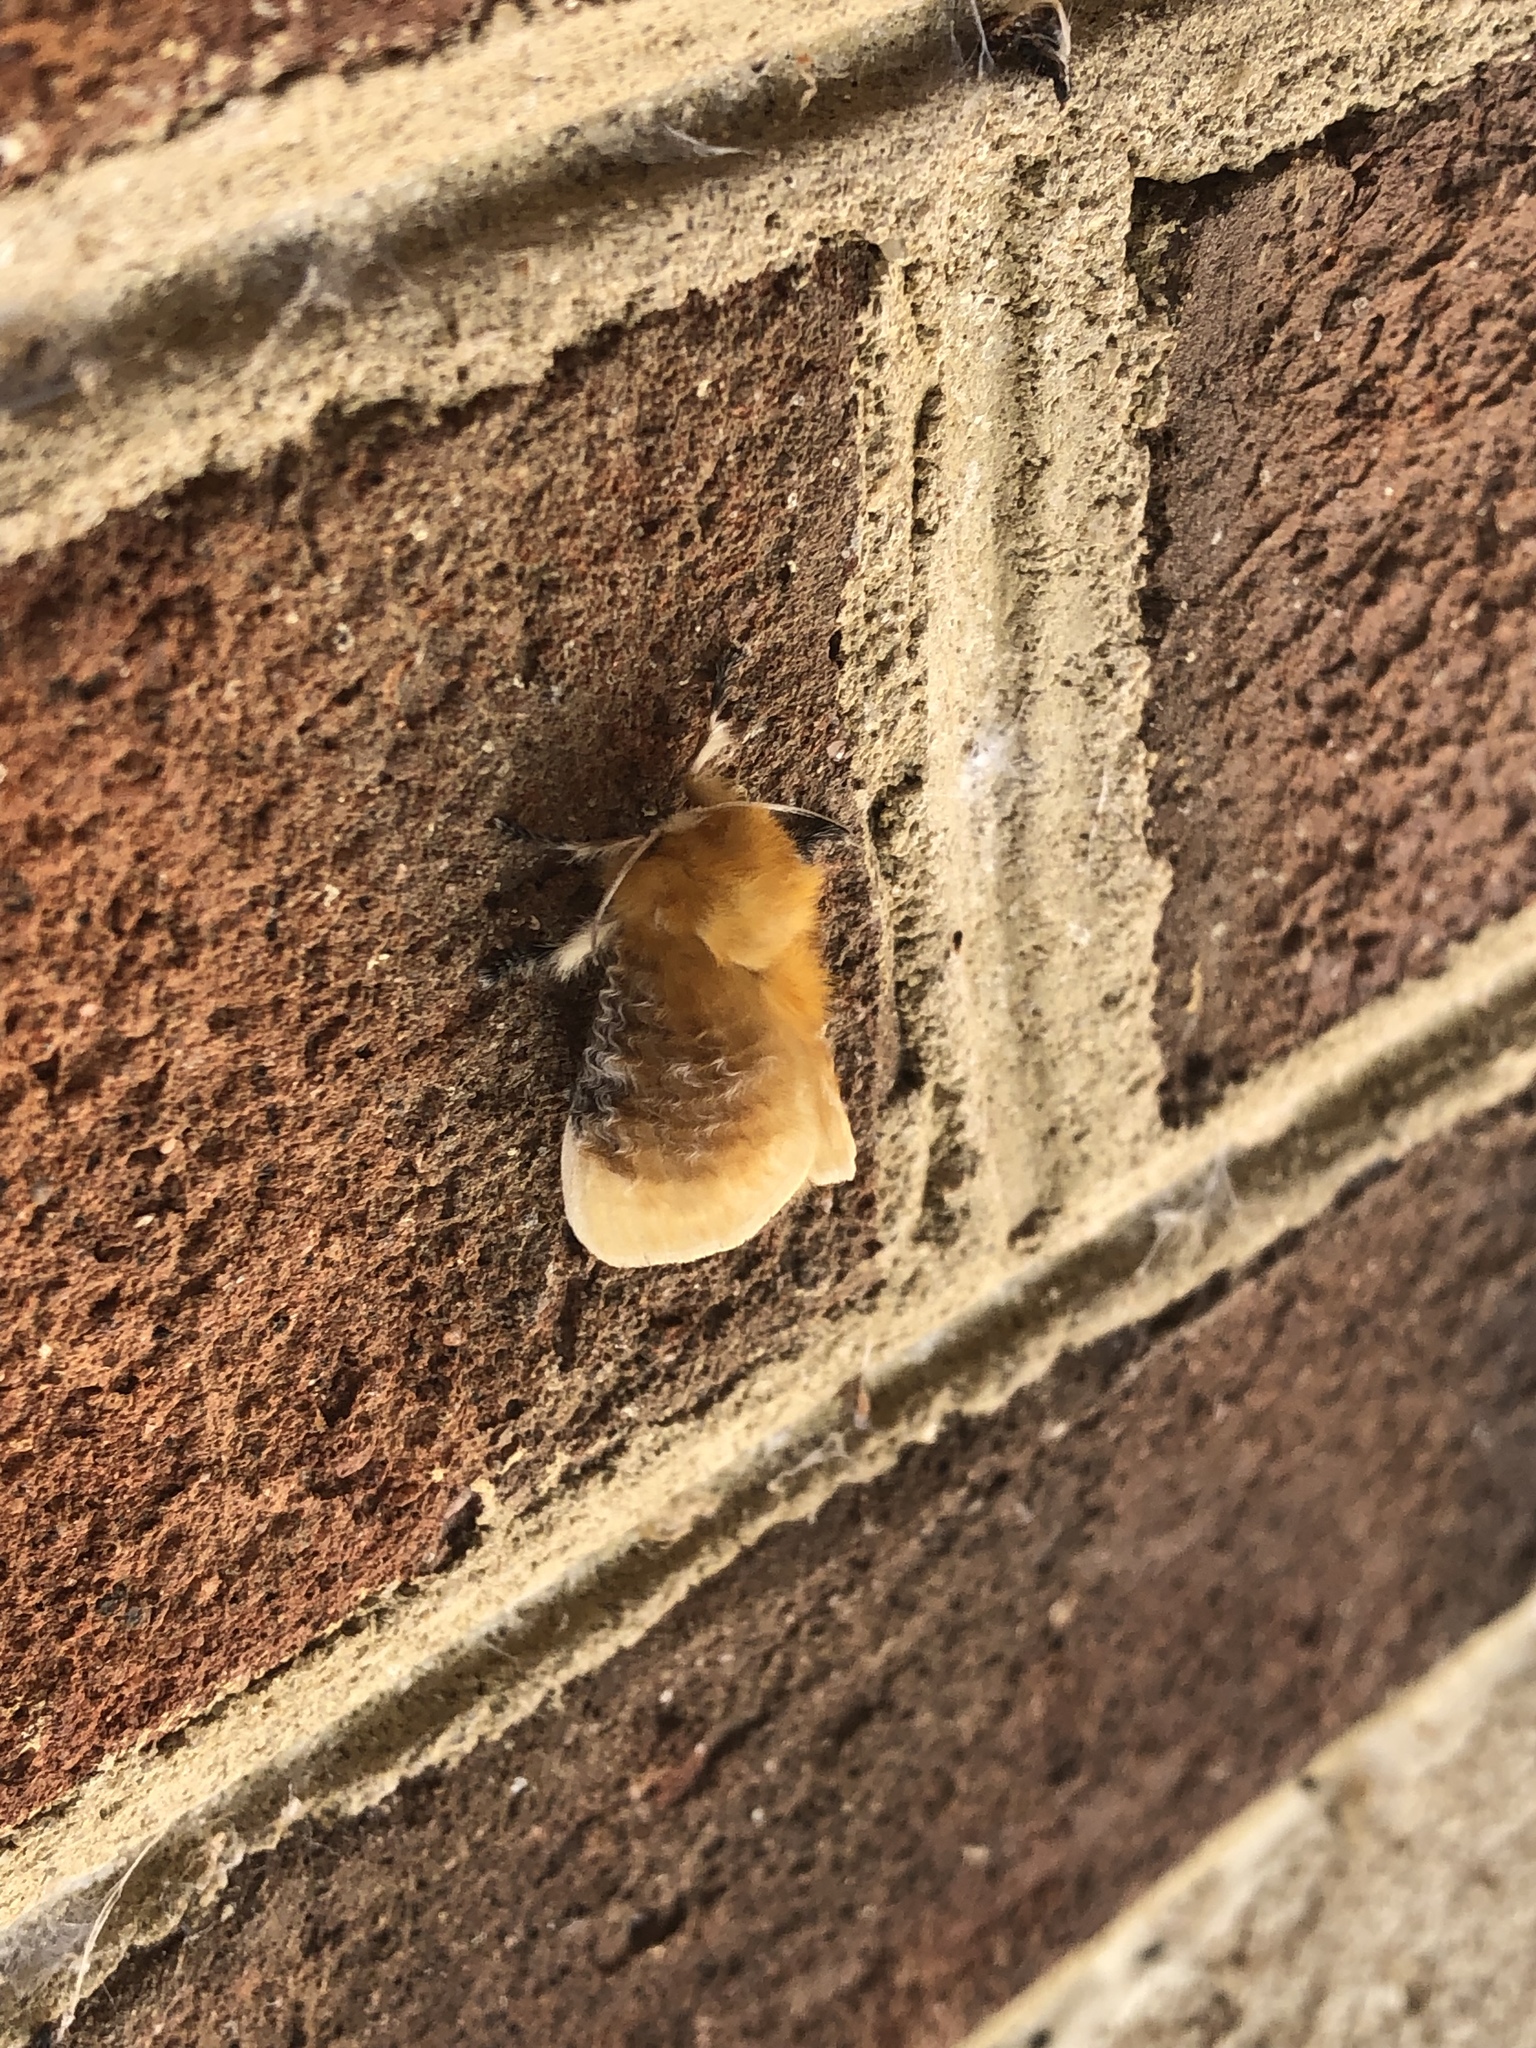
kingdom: Animalia
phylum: Arthropoda
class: Insecta
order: Lepidoptera
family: Megalopygidae
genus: Megalopyge
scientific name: Megalopyge opercularis
